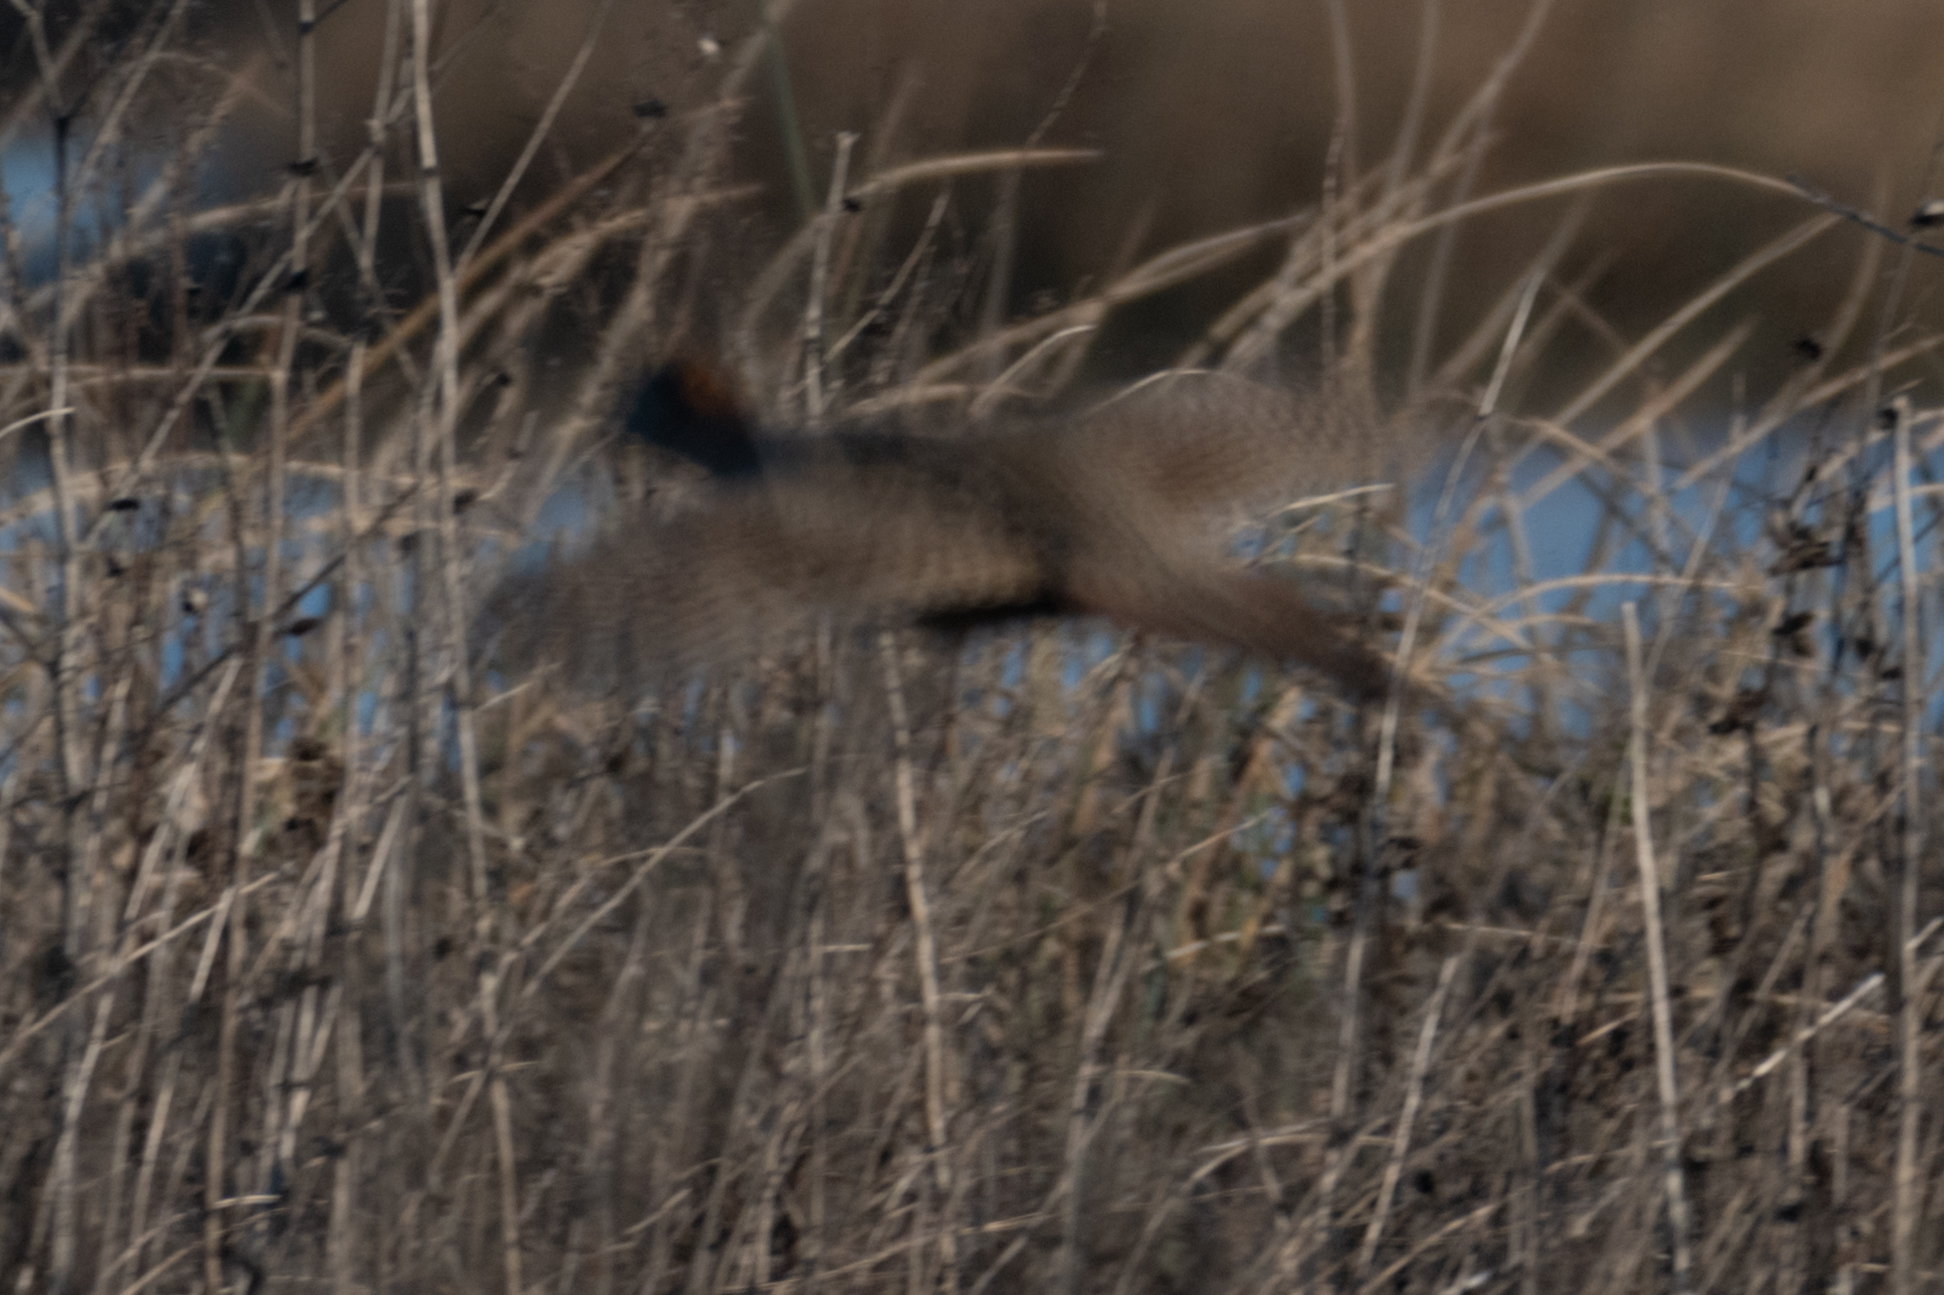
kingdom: Animalia
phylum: Chordata
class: Aves
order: Galliformes
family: Phasianidae
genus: Phasianus
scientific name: Phasianus colchicus
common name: Common pheasant
